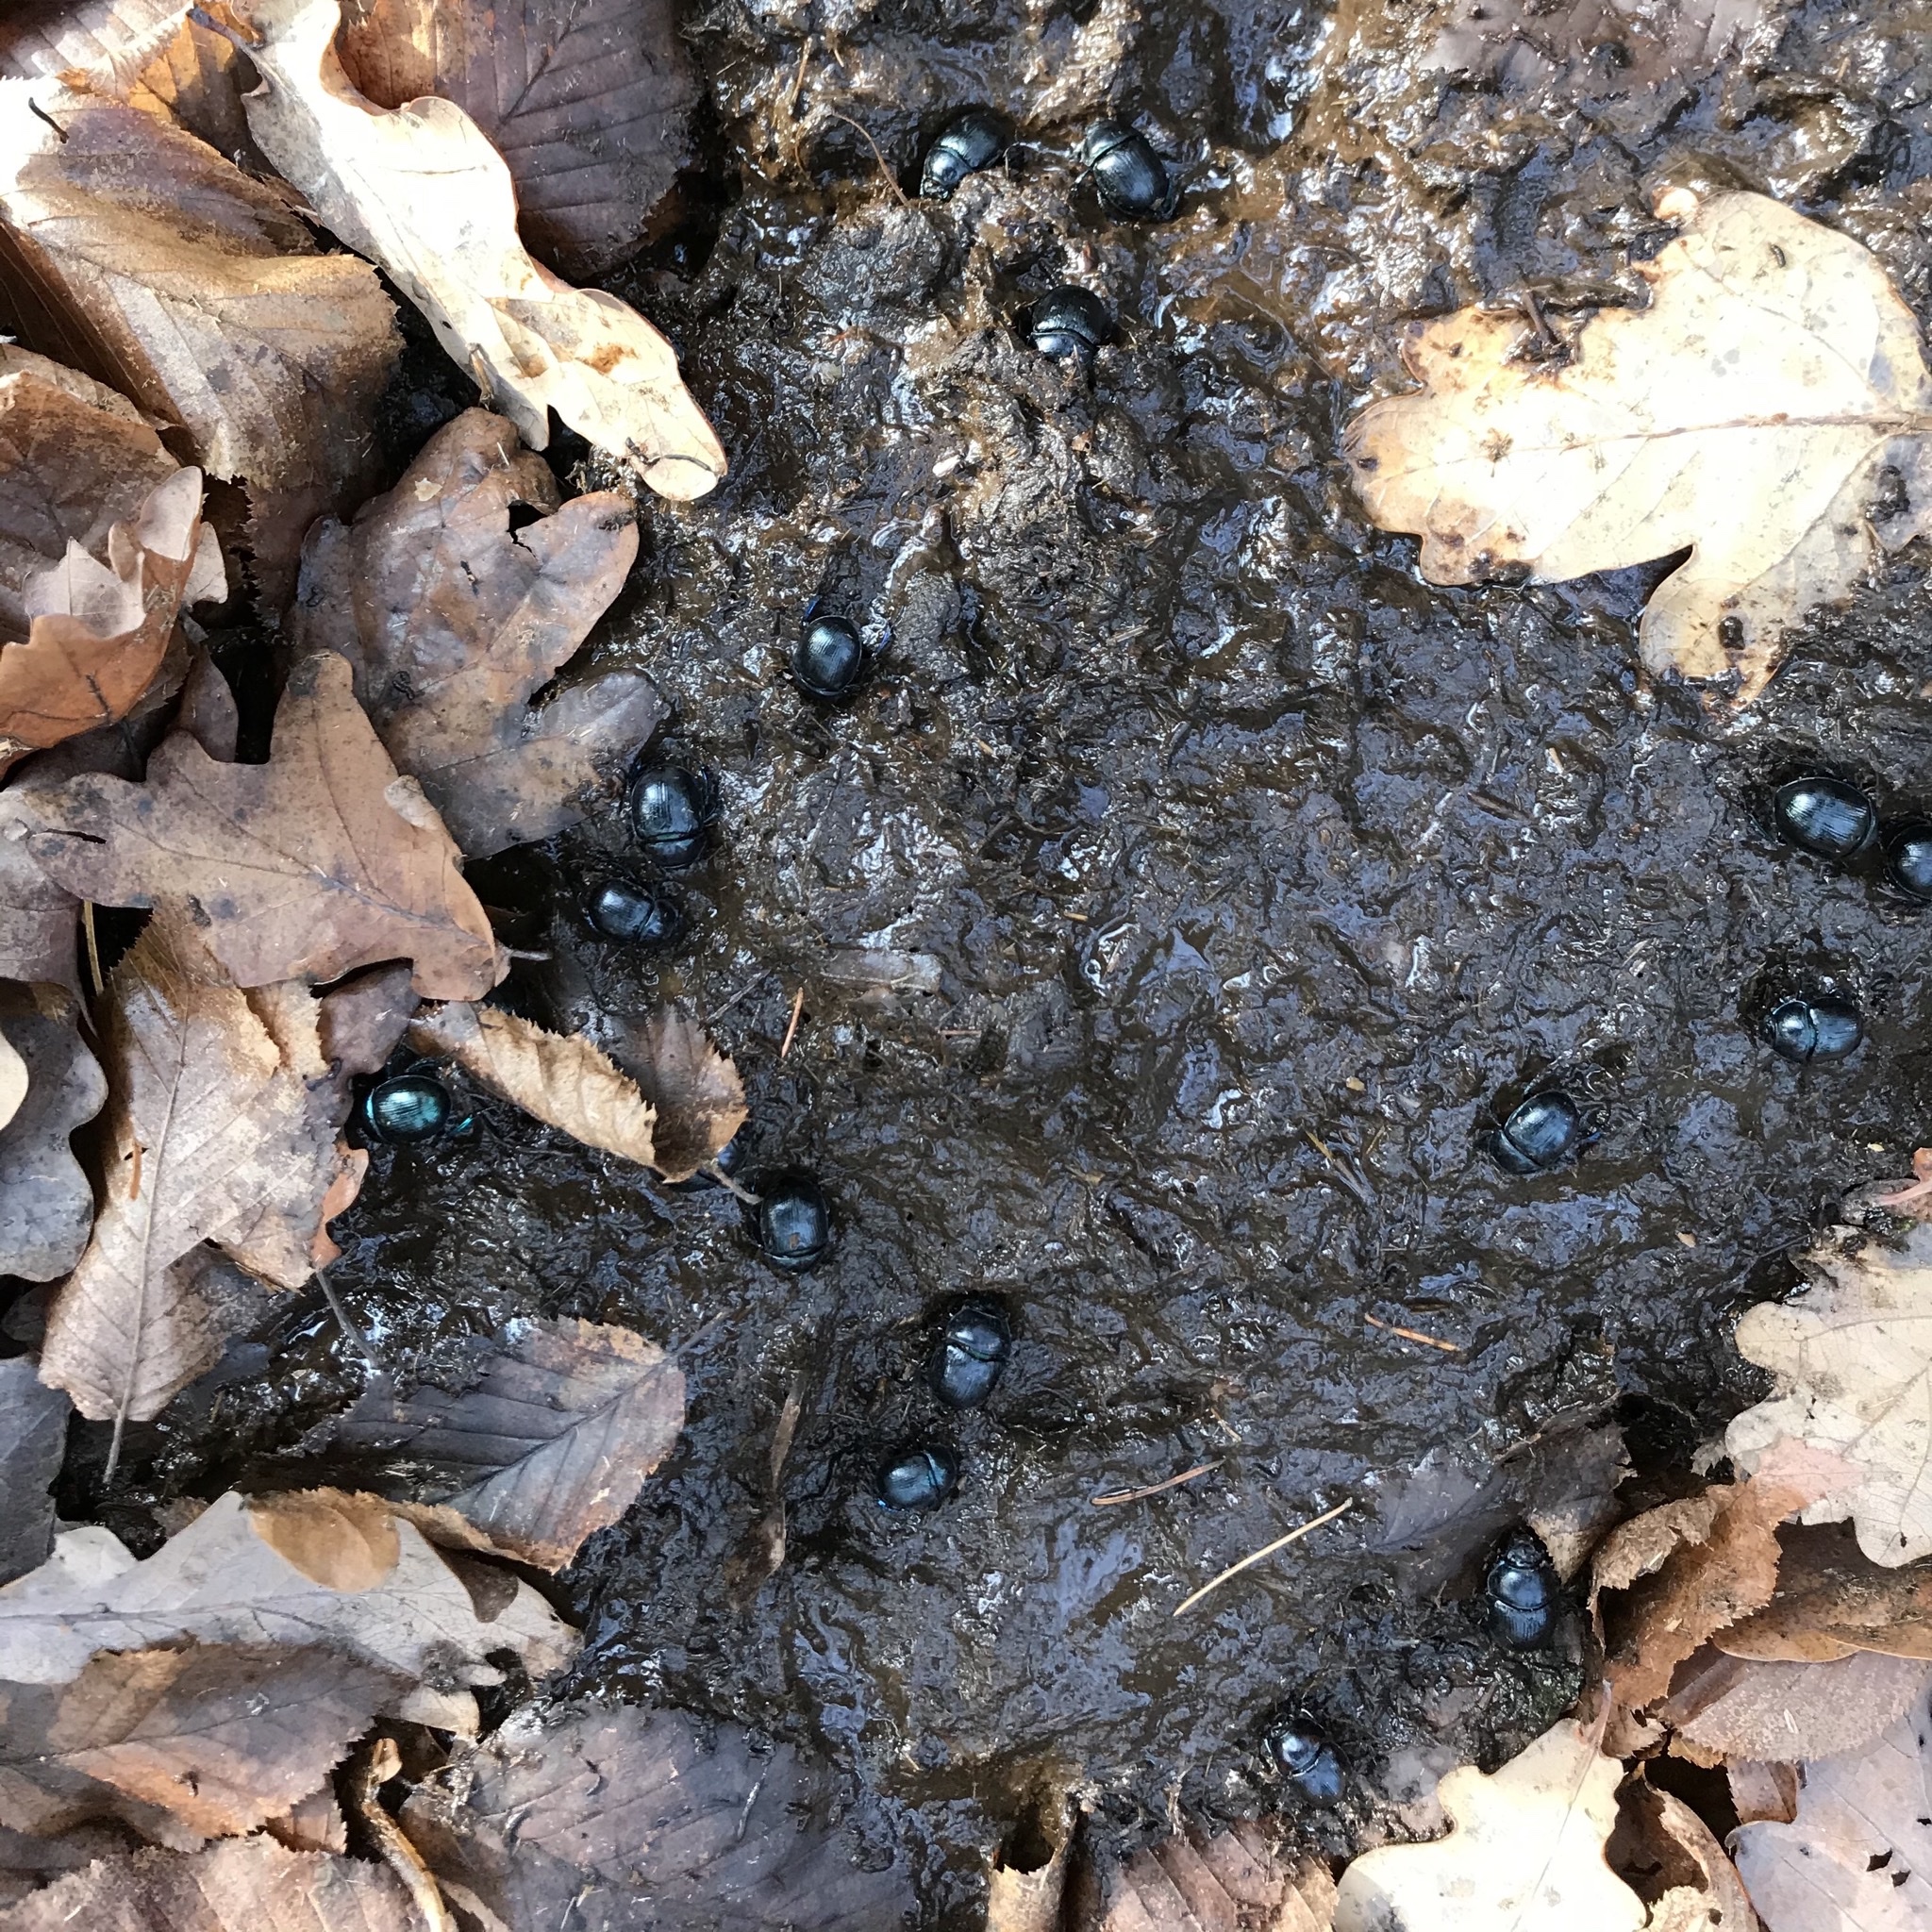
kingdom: Animalia
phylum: Chordata
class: Mammalia
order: Artiodactyla
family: Bovidae
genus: Bison
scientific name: Bison bonasus
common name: European bison
